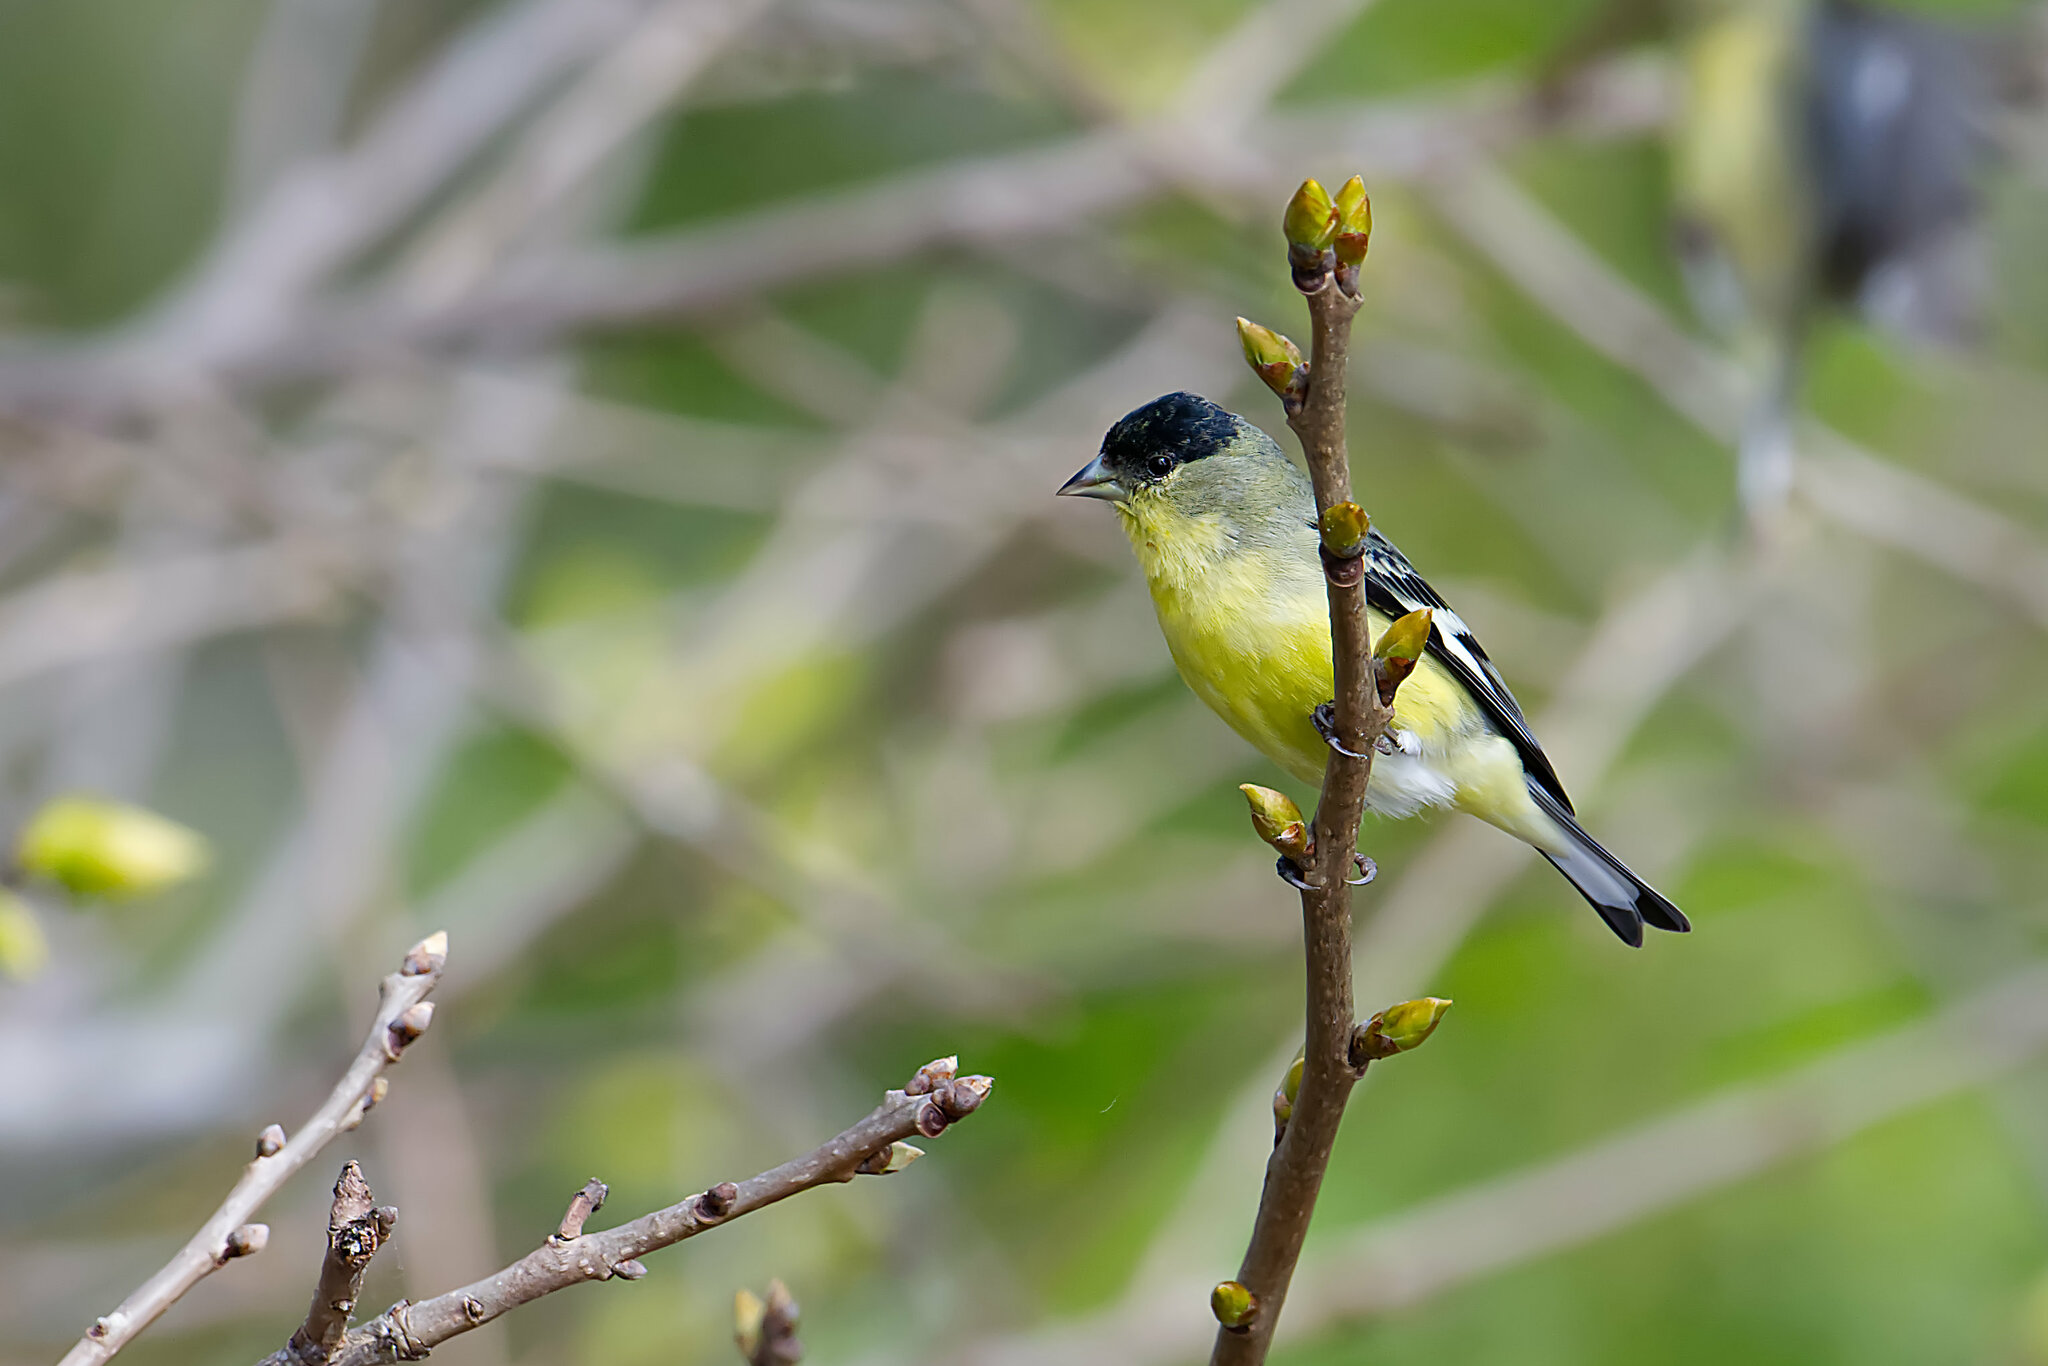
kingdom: Animalia
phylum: Chordata
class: Aves
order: Passeriformes
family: Fringillidae
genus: Spinus
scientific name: Spinus psaltria
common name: Lesser goldfinch
